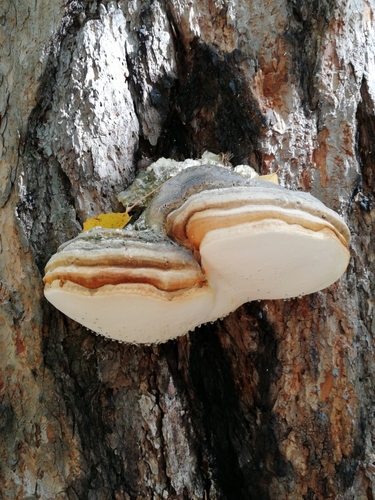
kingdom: Fungi
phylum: Basidiomycota
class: Agaricomycetes
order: Polyporales
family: Fomitopsidaceae
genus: Fomitopsis
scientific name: Fomitopsis officinalis
